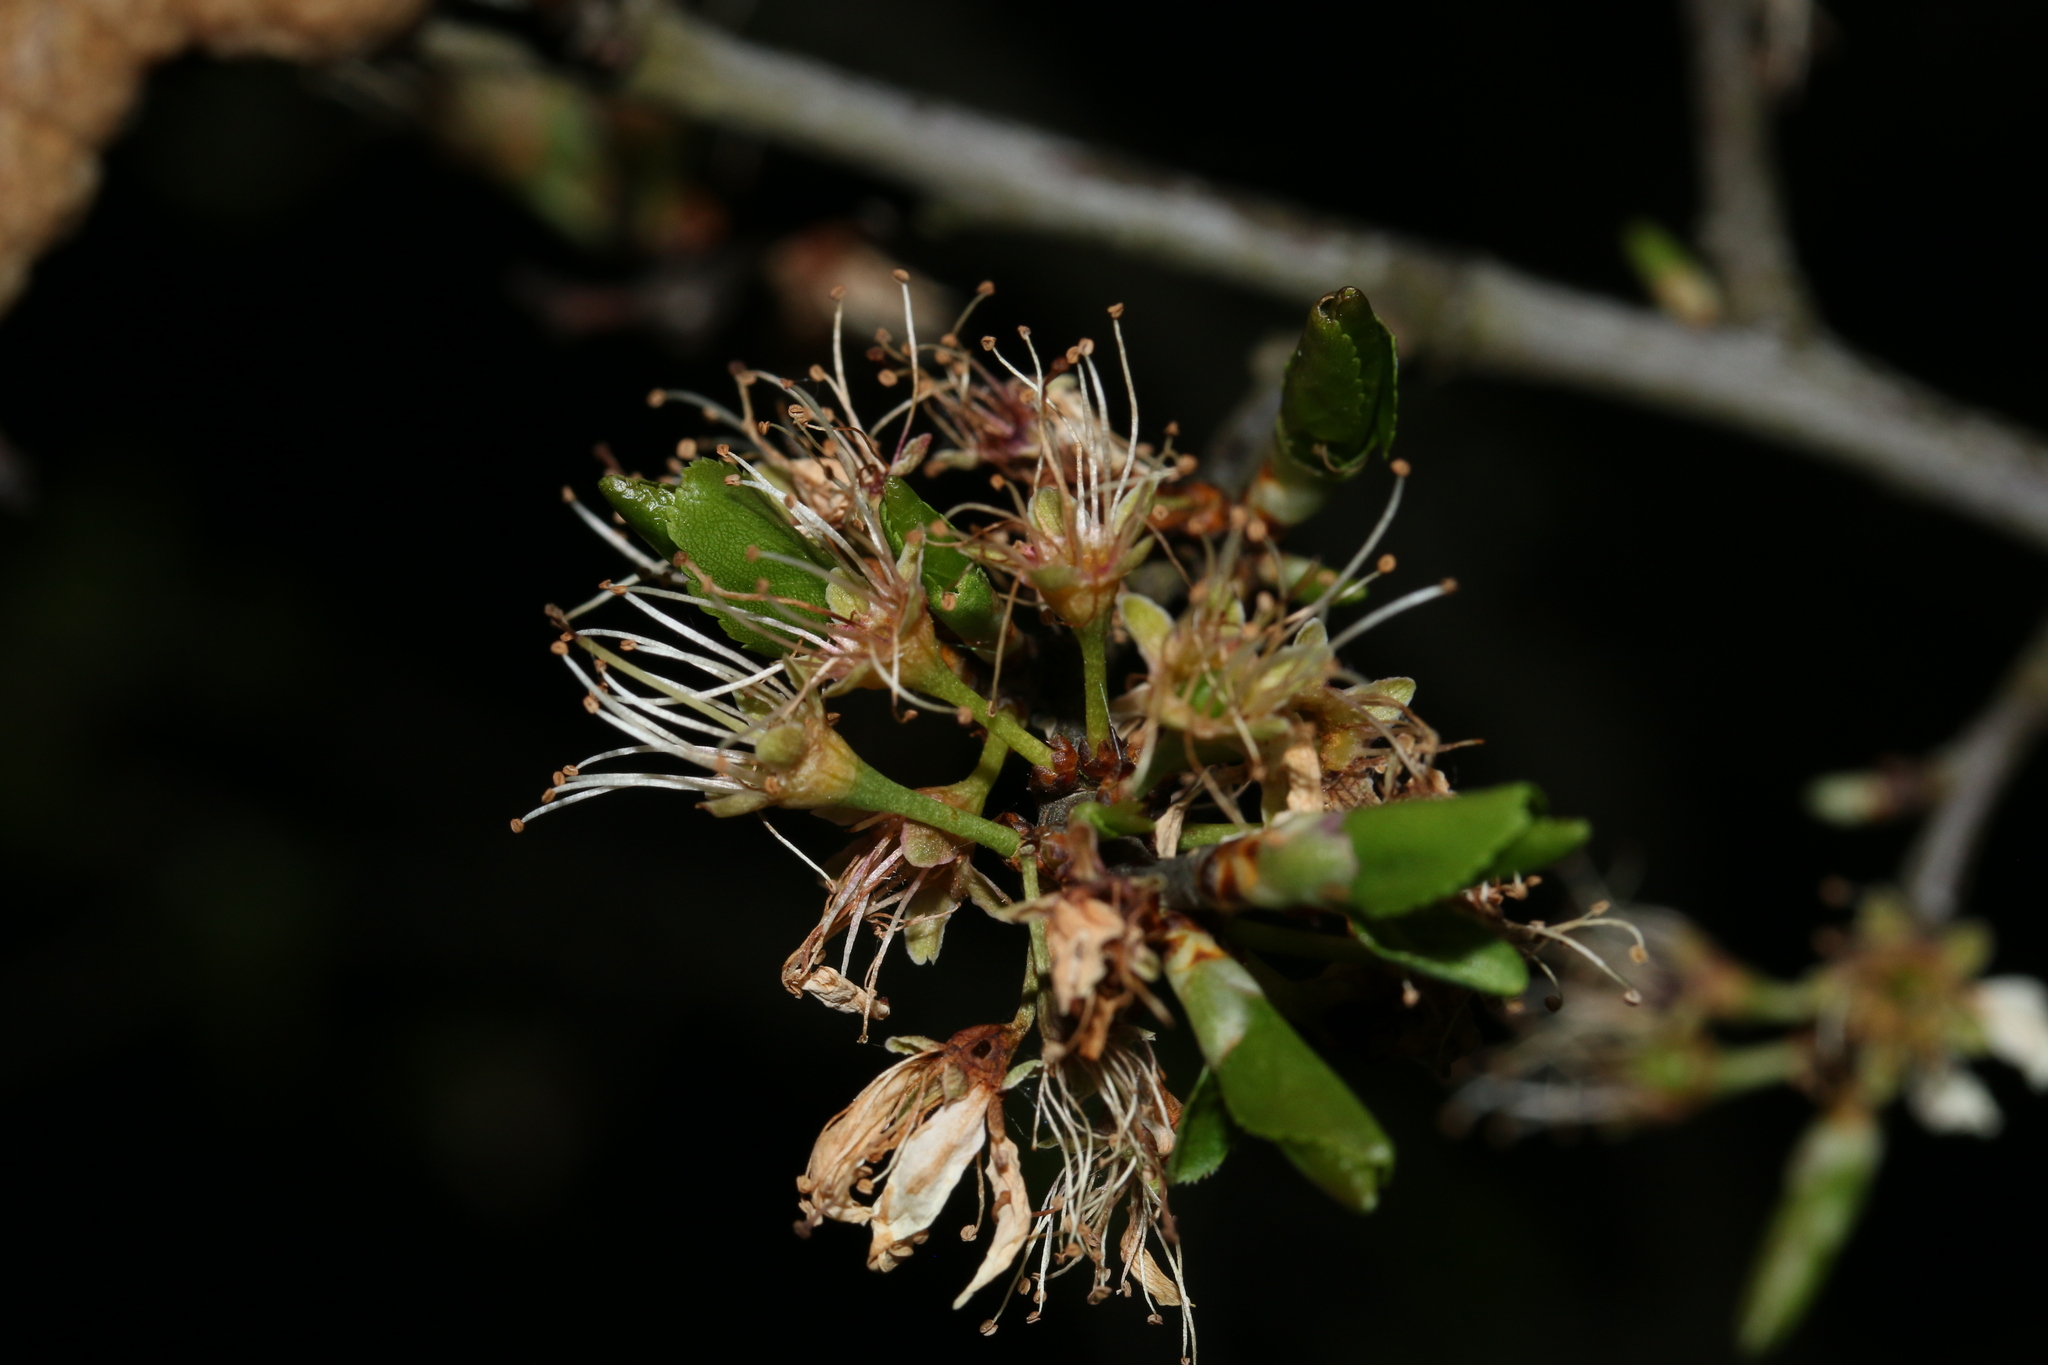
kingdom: Plantae
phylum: Tracheophyta
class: Magnoliopsida
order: Rosales
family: Rosaceae
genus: Prunus
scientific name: Prunus spinosa
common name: Blackthorn
